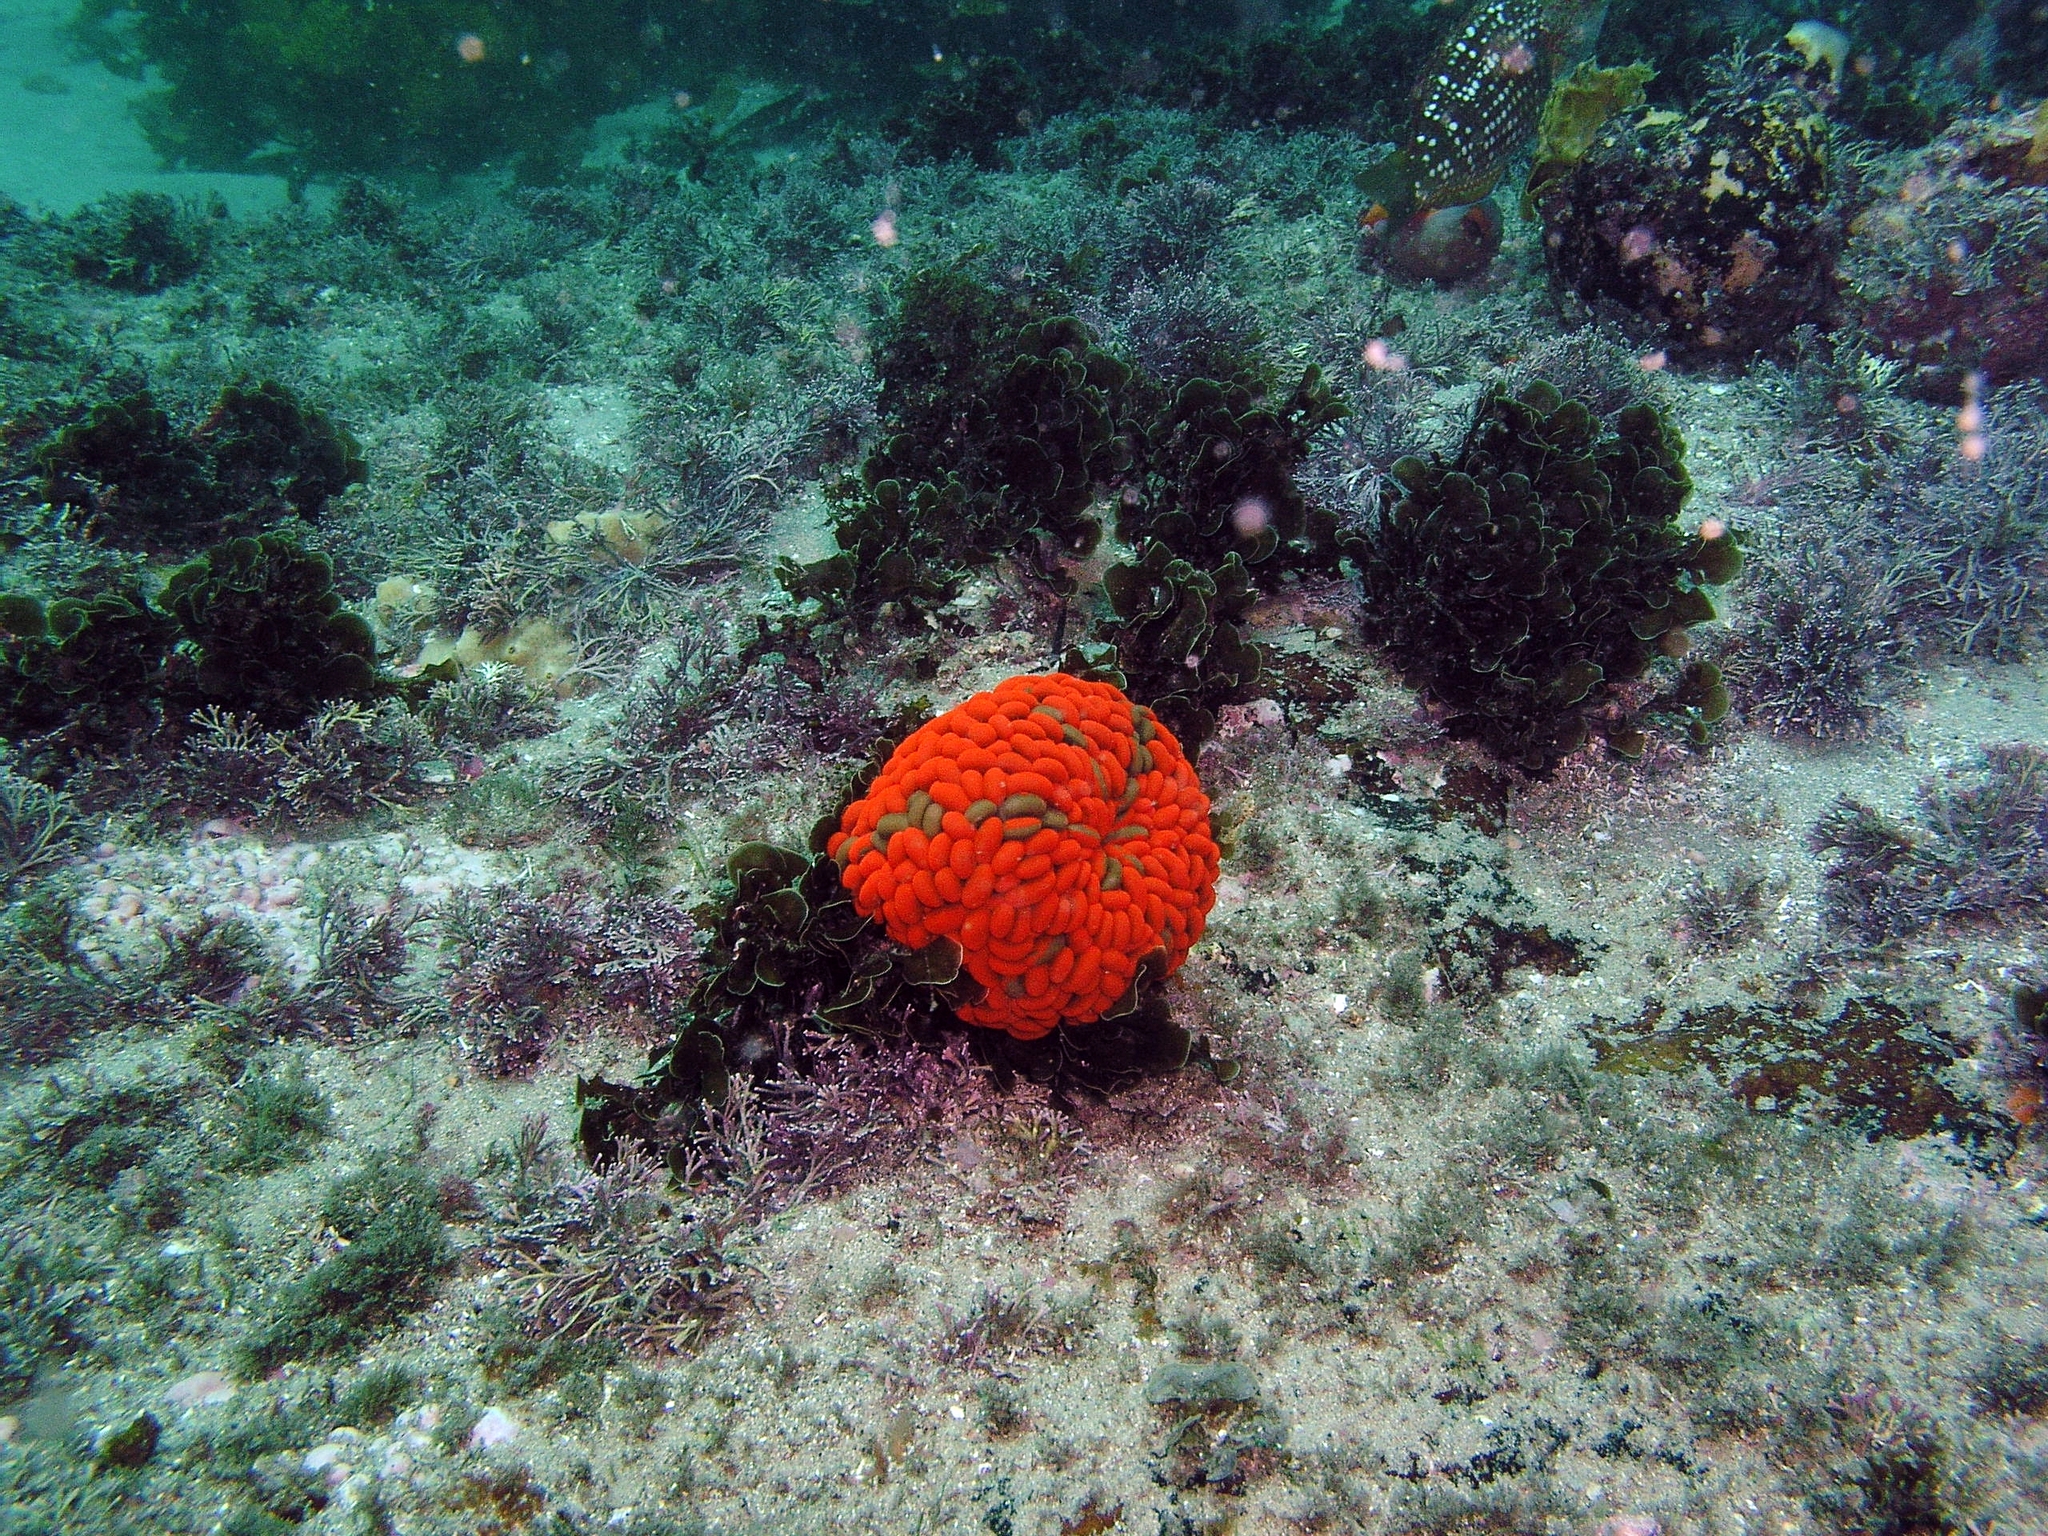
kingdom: Animalia
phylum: Cnidaria
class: Anthozoa
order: Actiniaria
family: Actiniidae
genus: Phlyctenactis
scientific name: Phlyctenactis tuberculosa
